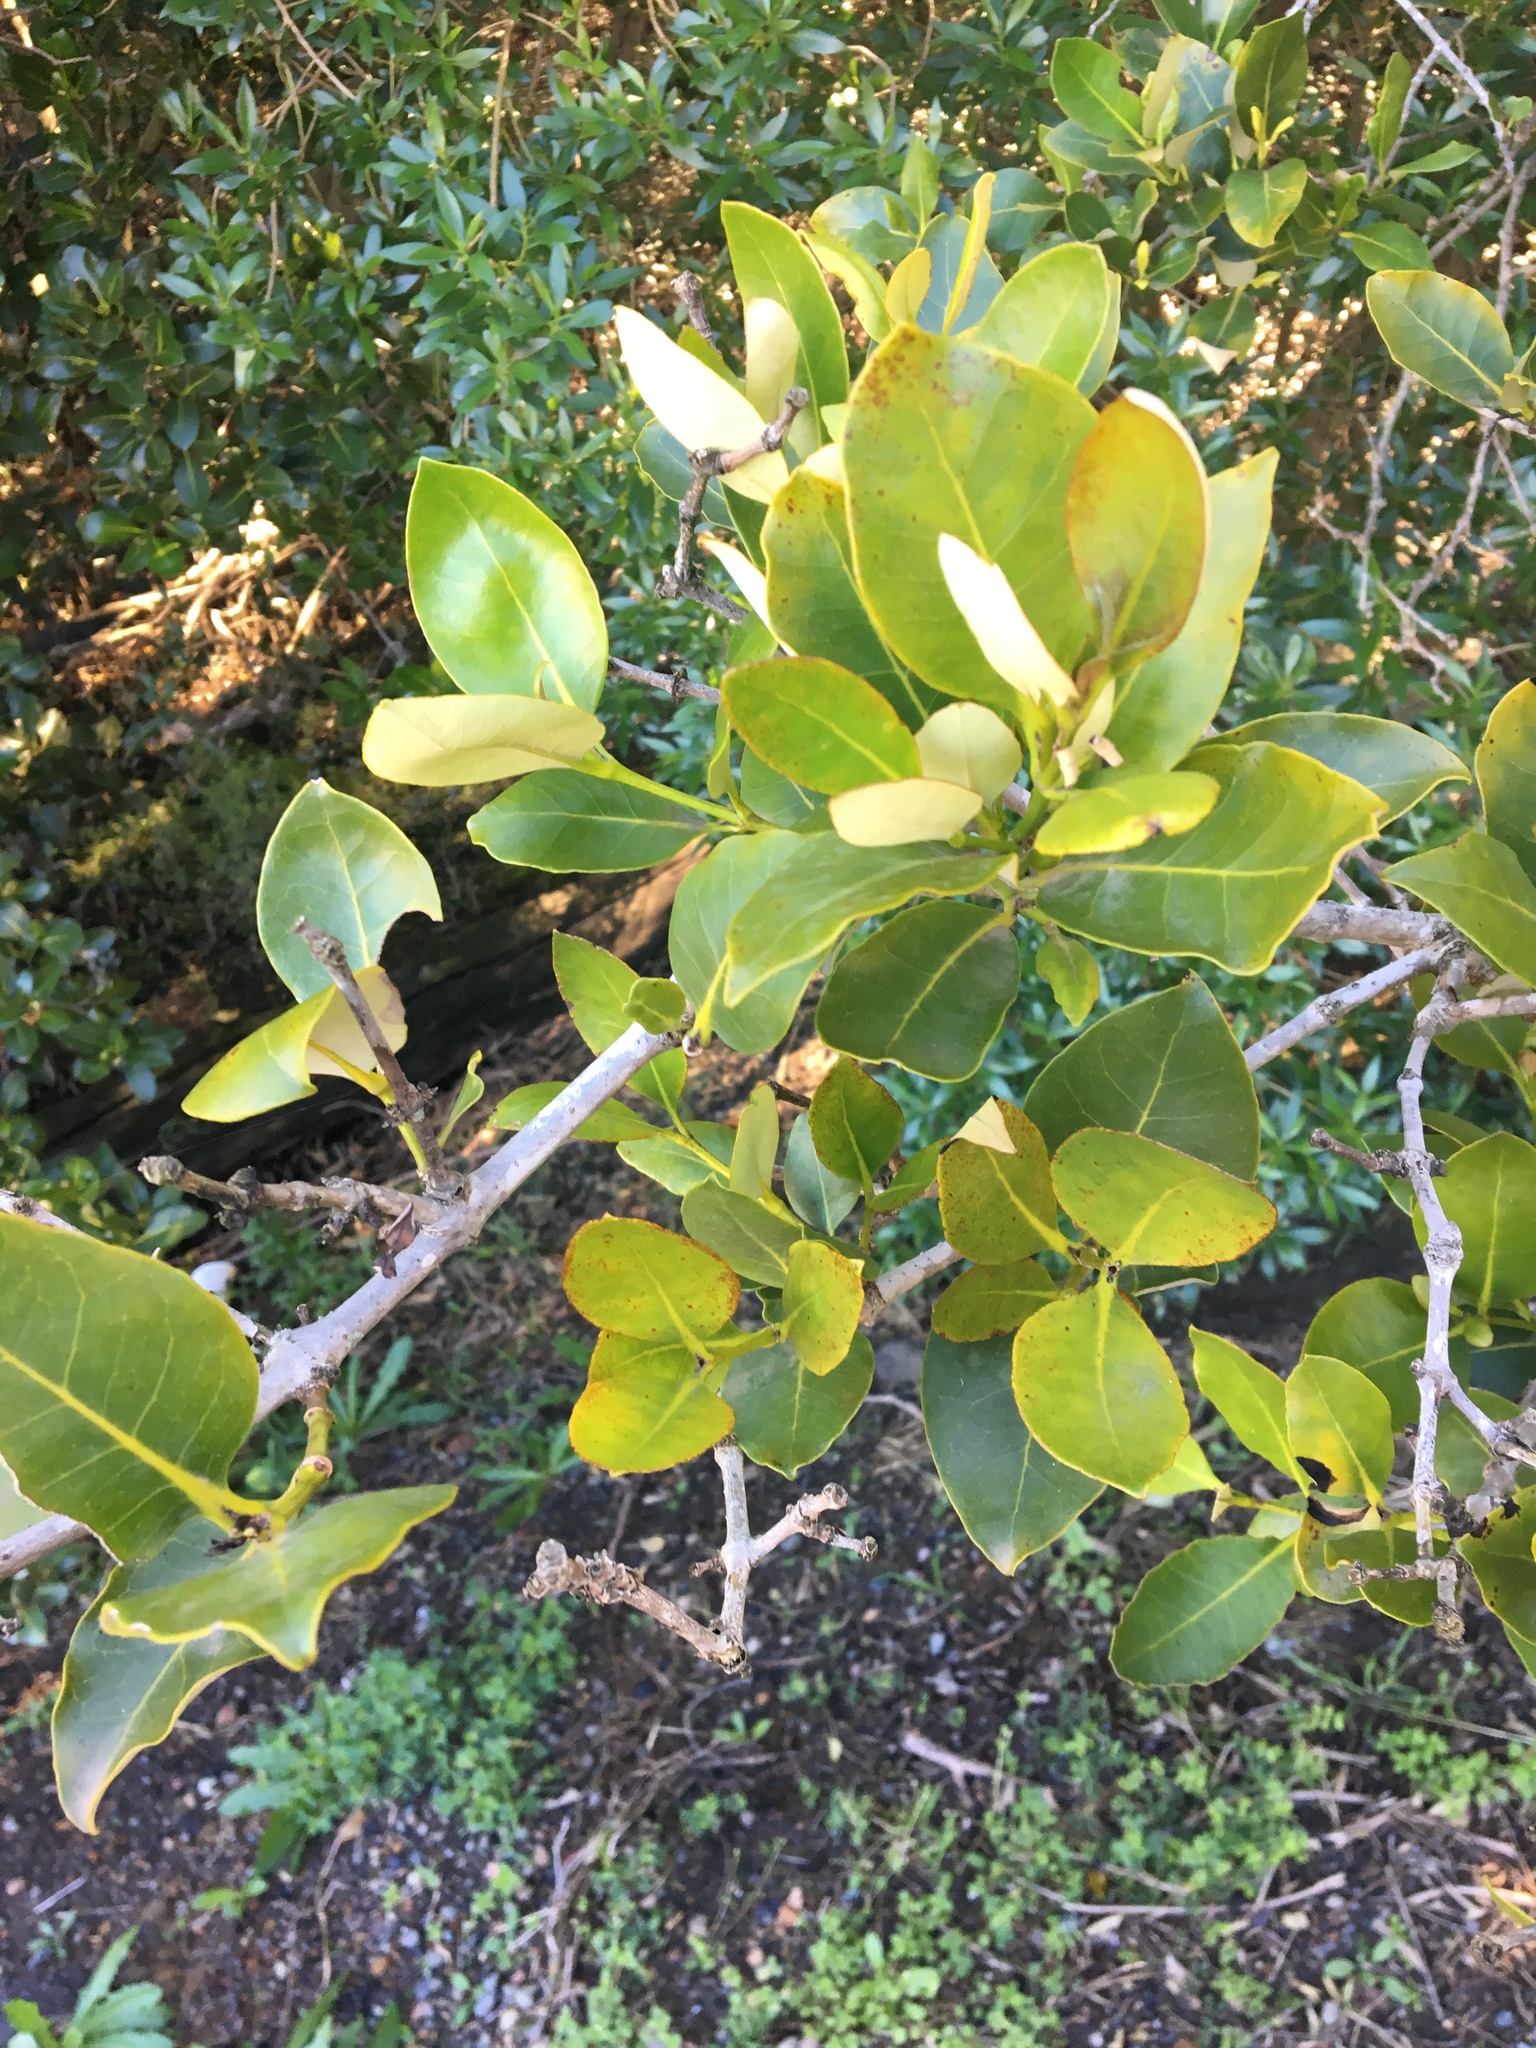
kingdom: Plantae
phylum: Tracheophyta
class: Magnoliopsida
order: Lamiales
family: Acanthaceae
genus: Avicennia
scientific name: Avicennia marina
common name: Gray mangrove
